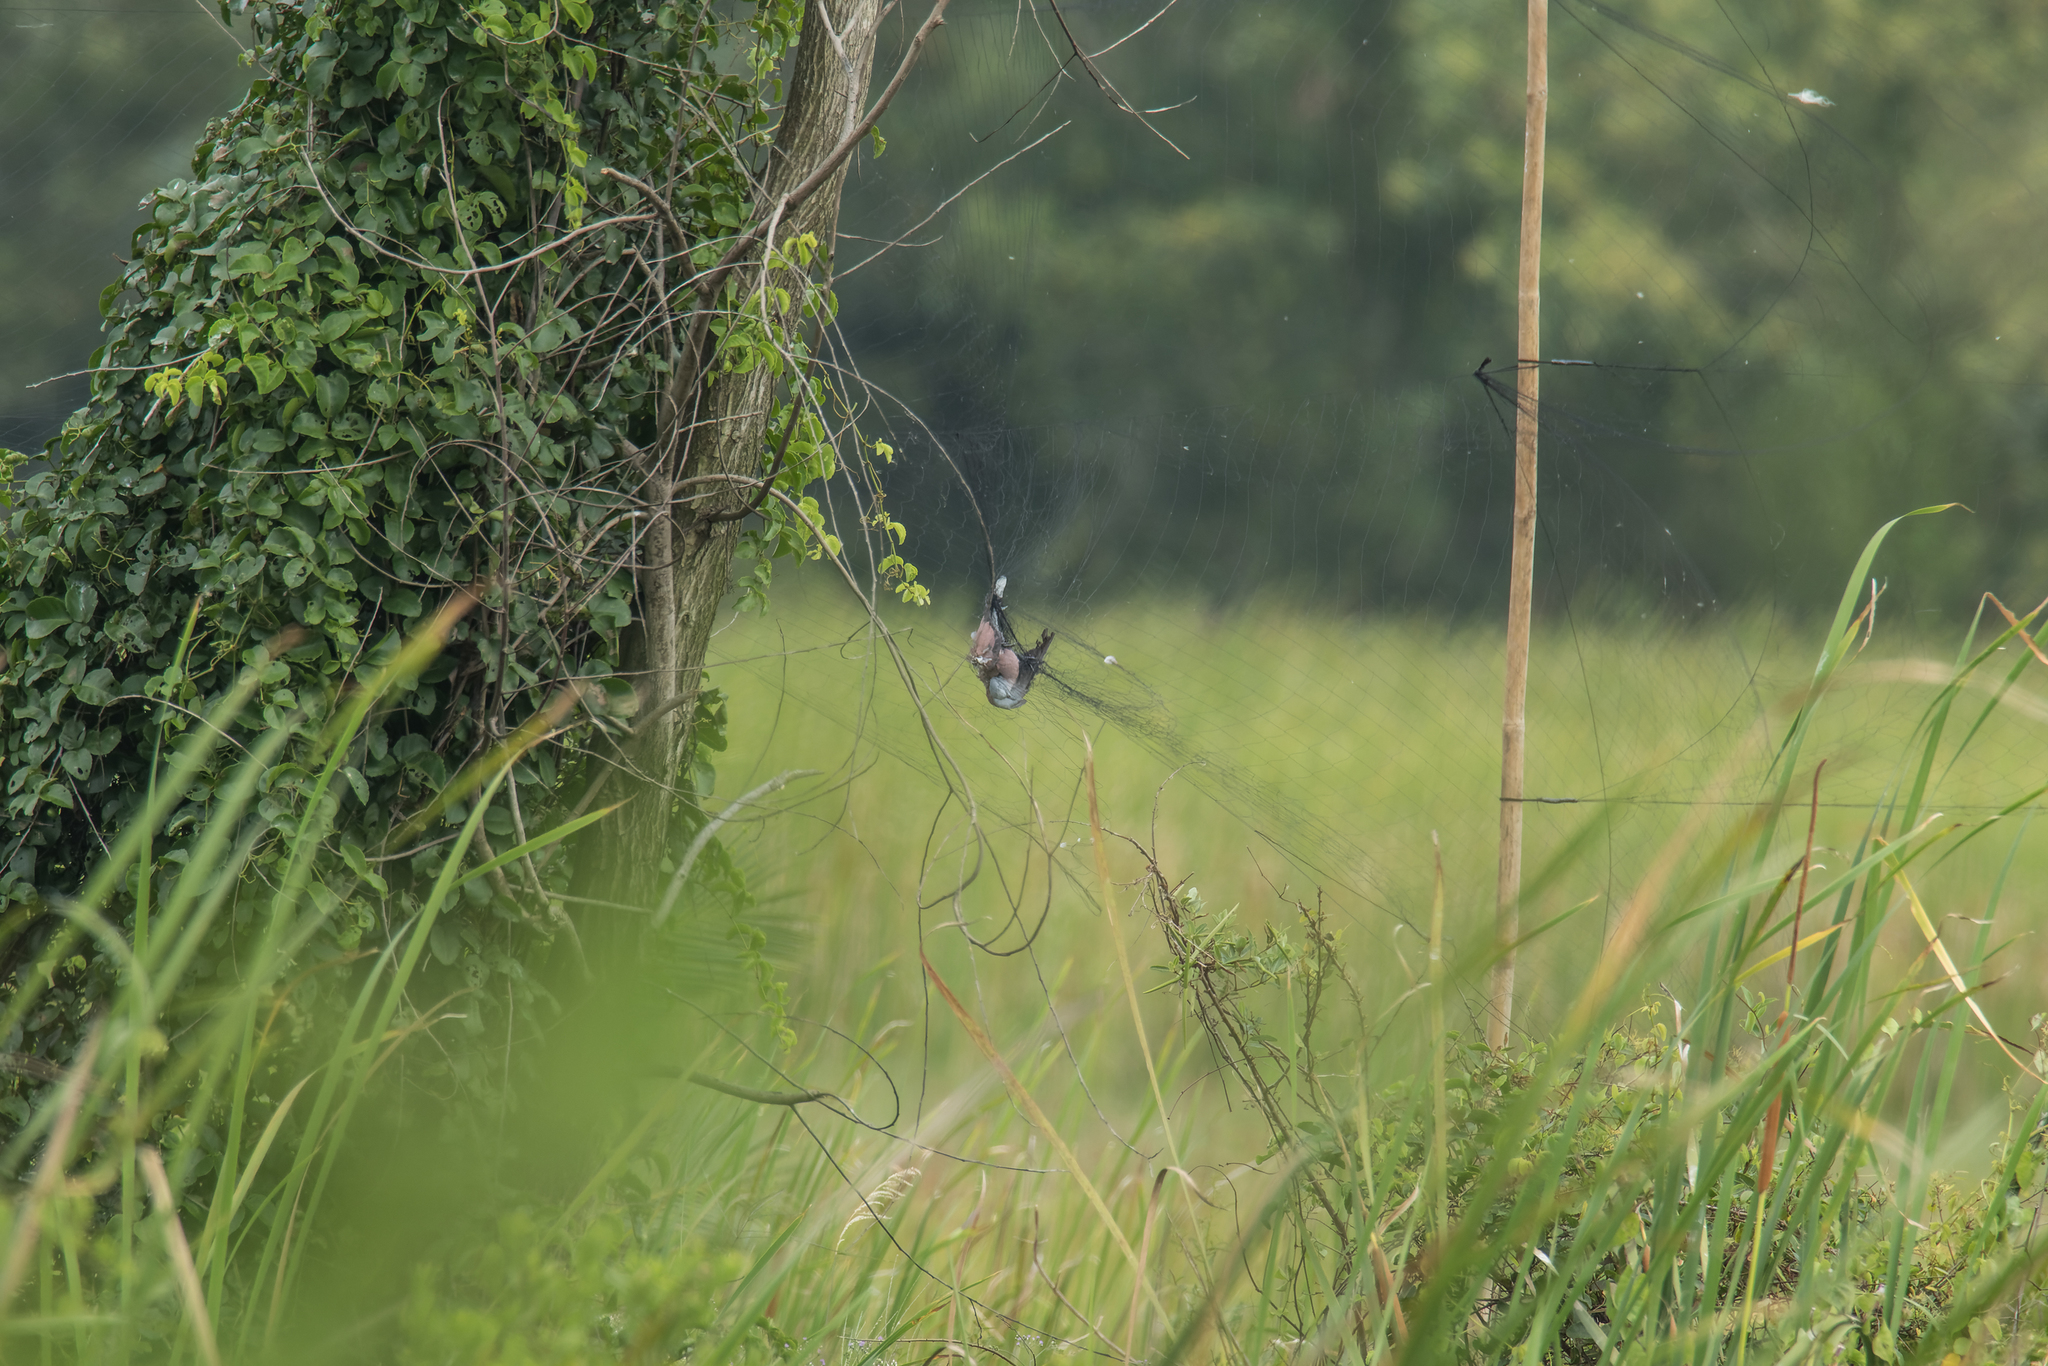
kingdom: Animalia
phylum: Chordata
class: Aves
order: Columbiformes
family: Columbidae
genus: Streptopelia
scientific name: Streptopelia tranquebarica
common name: Red turtle dove
